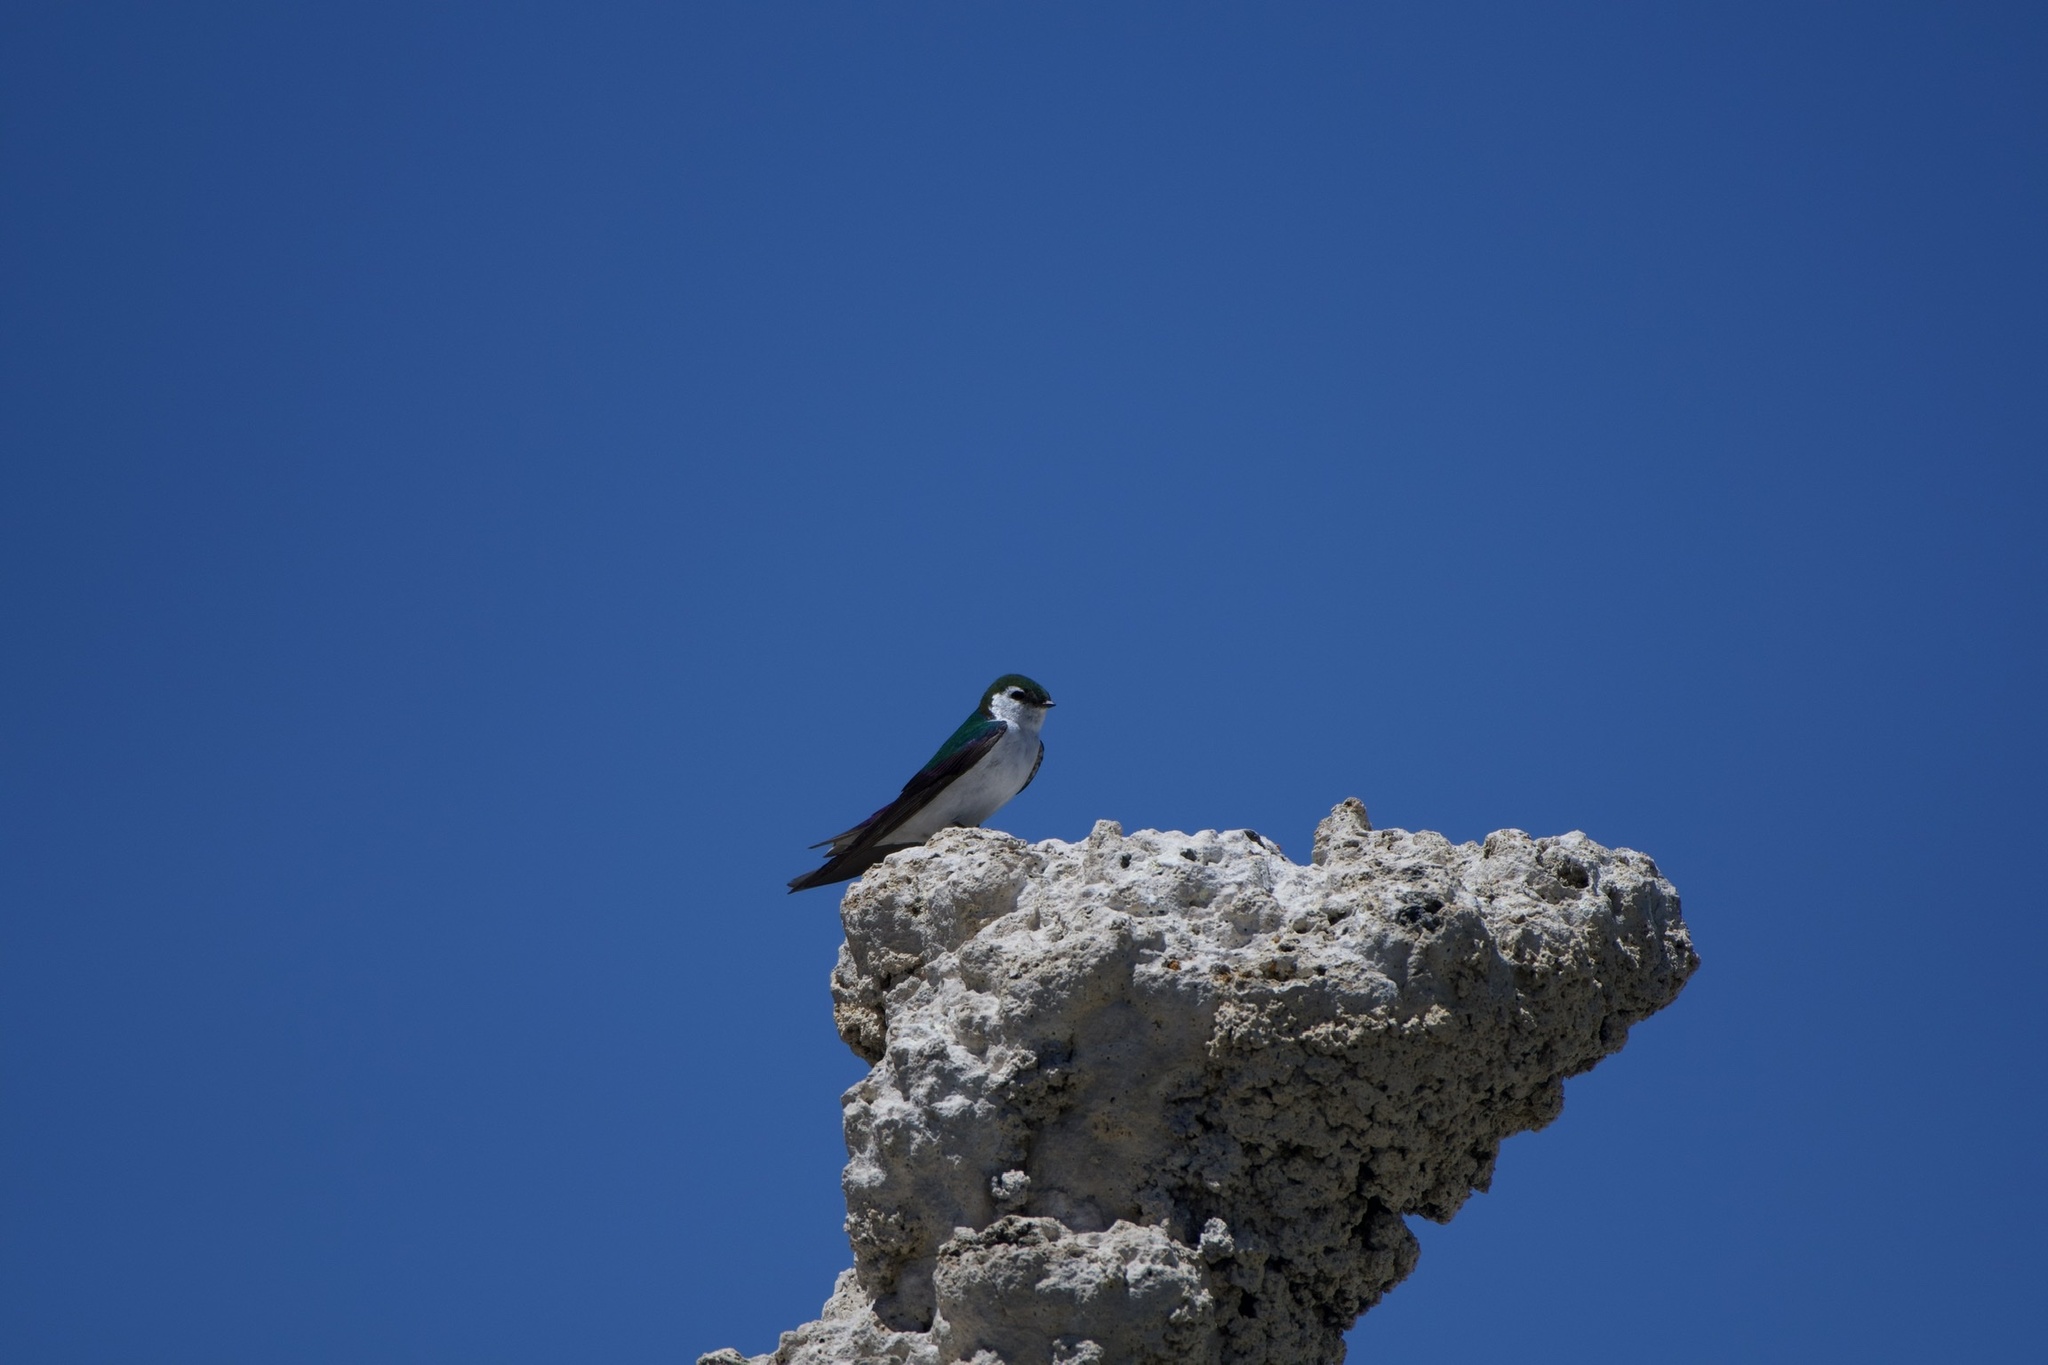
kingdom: Animalia
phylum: Chordata
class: Aves
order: Passeriformes
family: Hirundinidae
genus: Tachycineta
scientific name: Tachycineta thalassina
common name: Violet-green swallow
